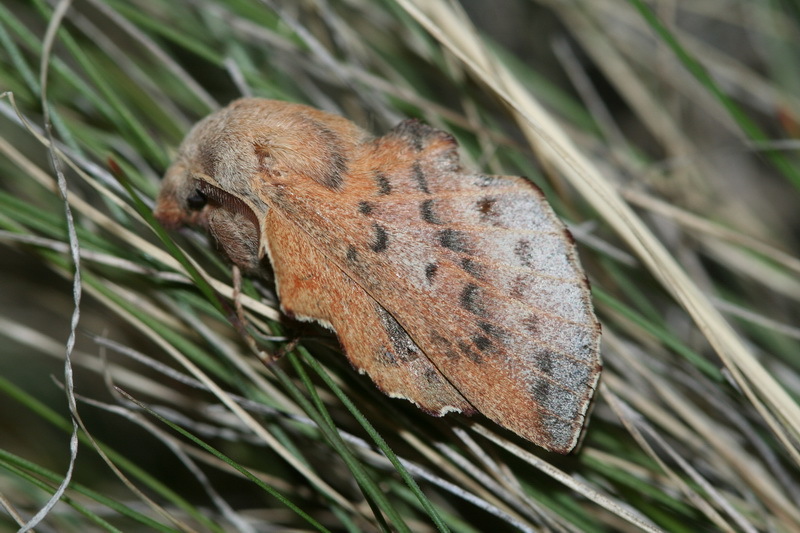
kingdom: Animalia
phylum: Arthropoda
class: Insecta
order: Lepidoptera
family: Lasiocampidae
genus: Phyllodesma
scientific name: Phyllodesma tremulifolia
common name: Aspen lappet
